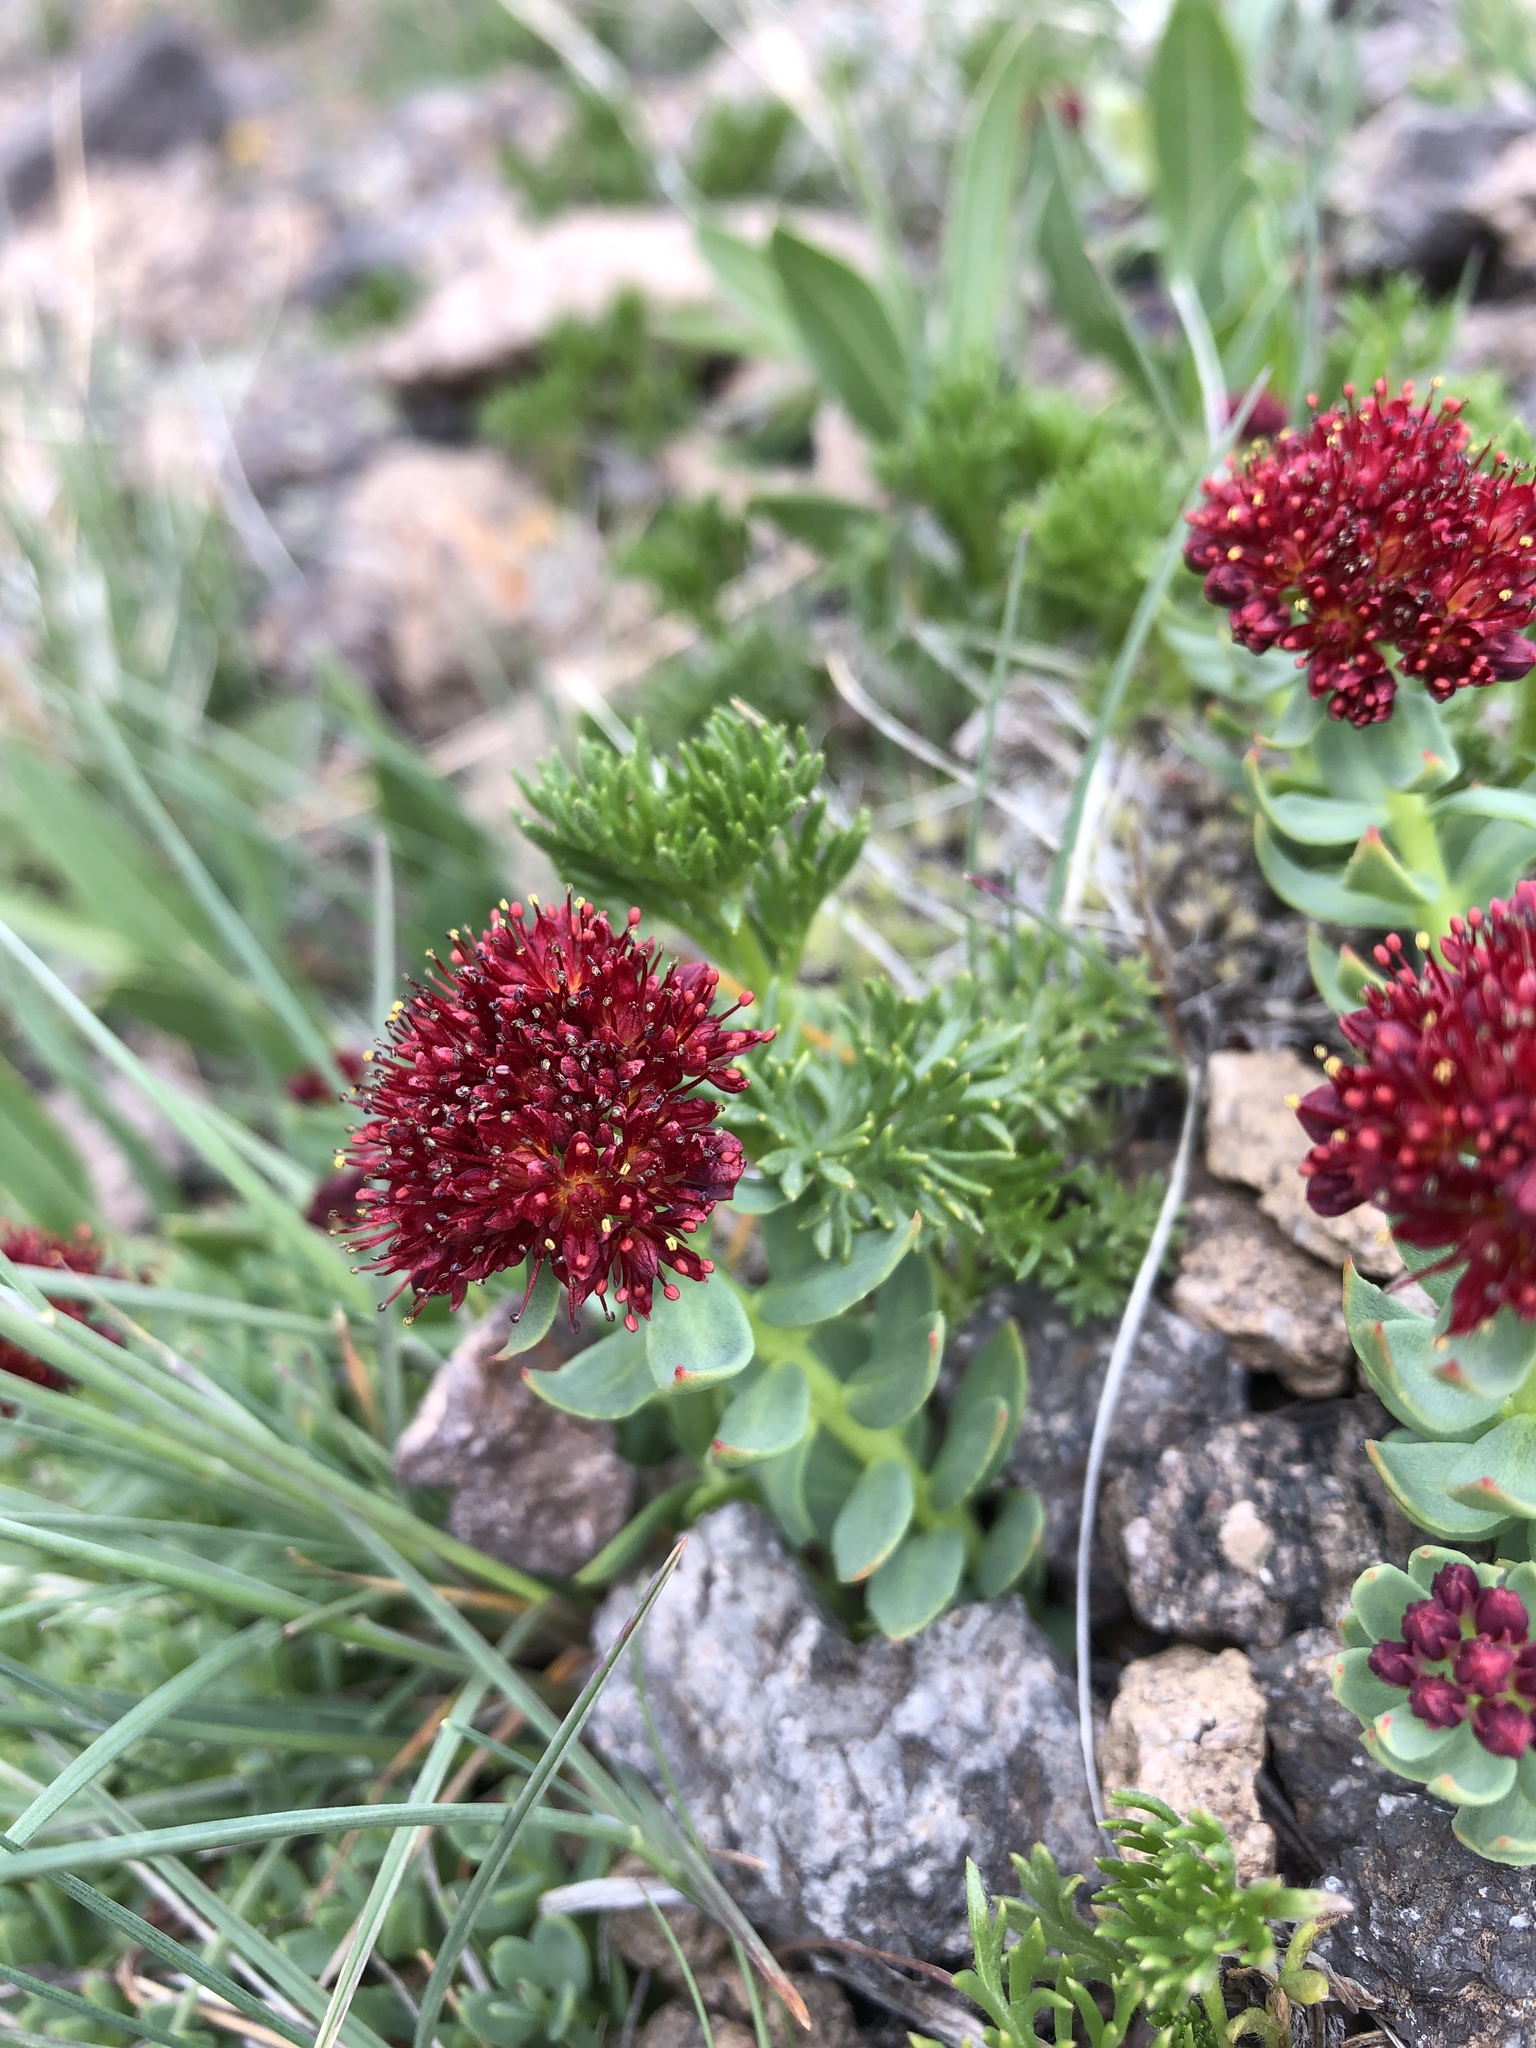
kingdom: Plantae
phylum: Tracheophyta
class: Magnoliopsida
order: Saxifragales
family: Crassulaceae
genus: Rhodiola
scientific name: Rhodiola integrifolia
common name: Western roseroot
